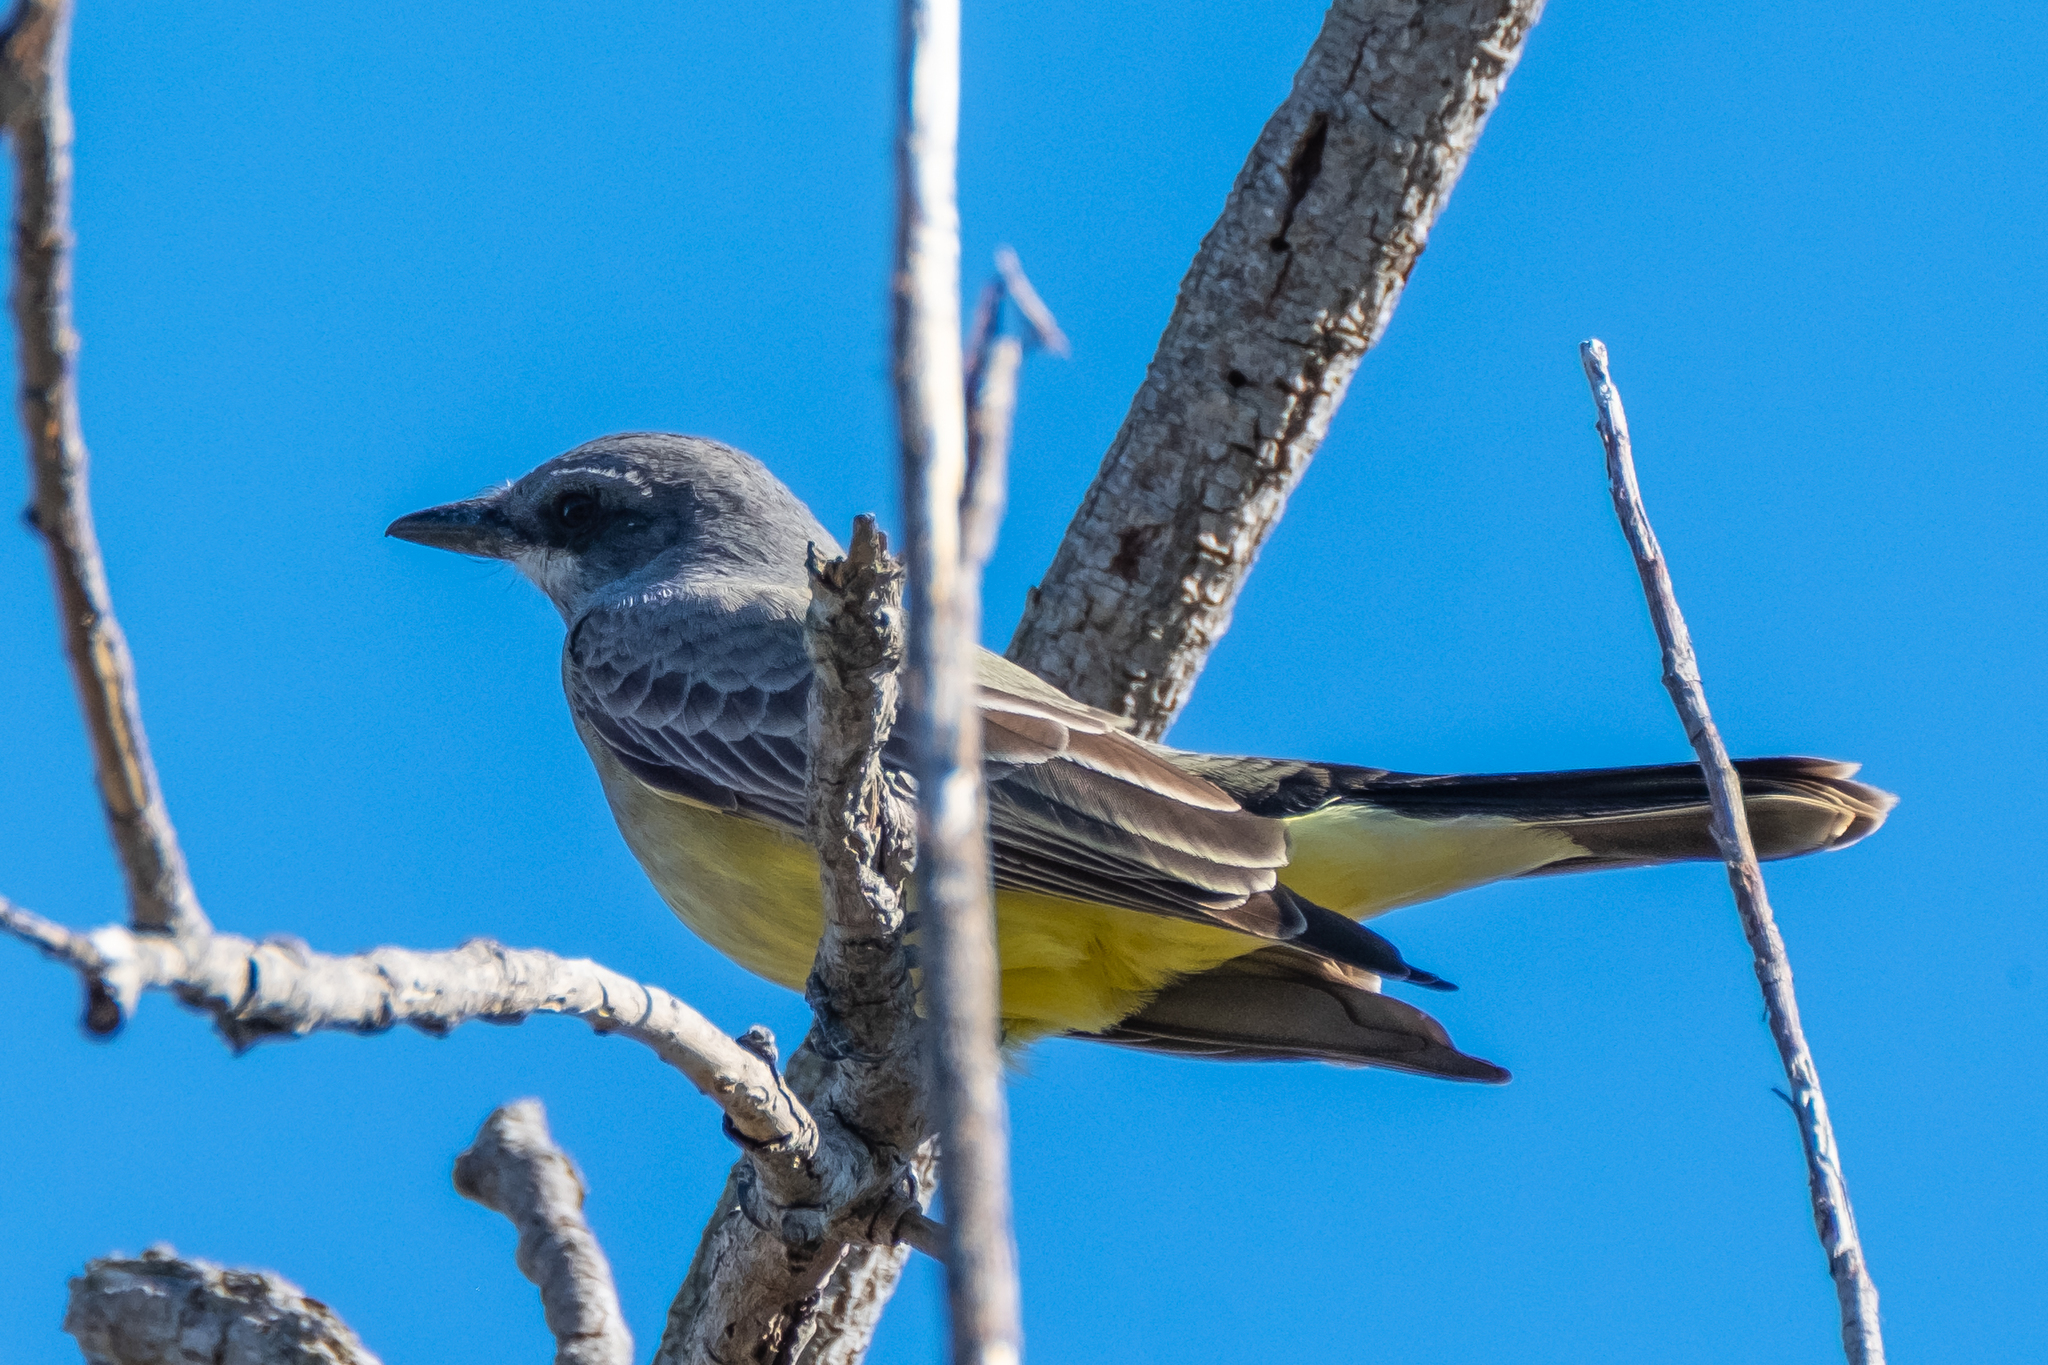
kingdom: Animalia
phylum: Chordata
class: Aves
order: Passeriformes
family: Tyrannidae
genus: Tyrannus
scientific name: Tyrannus vociferans
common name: Cassin's kingbird
